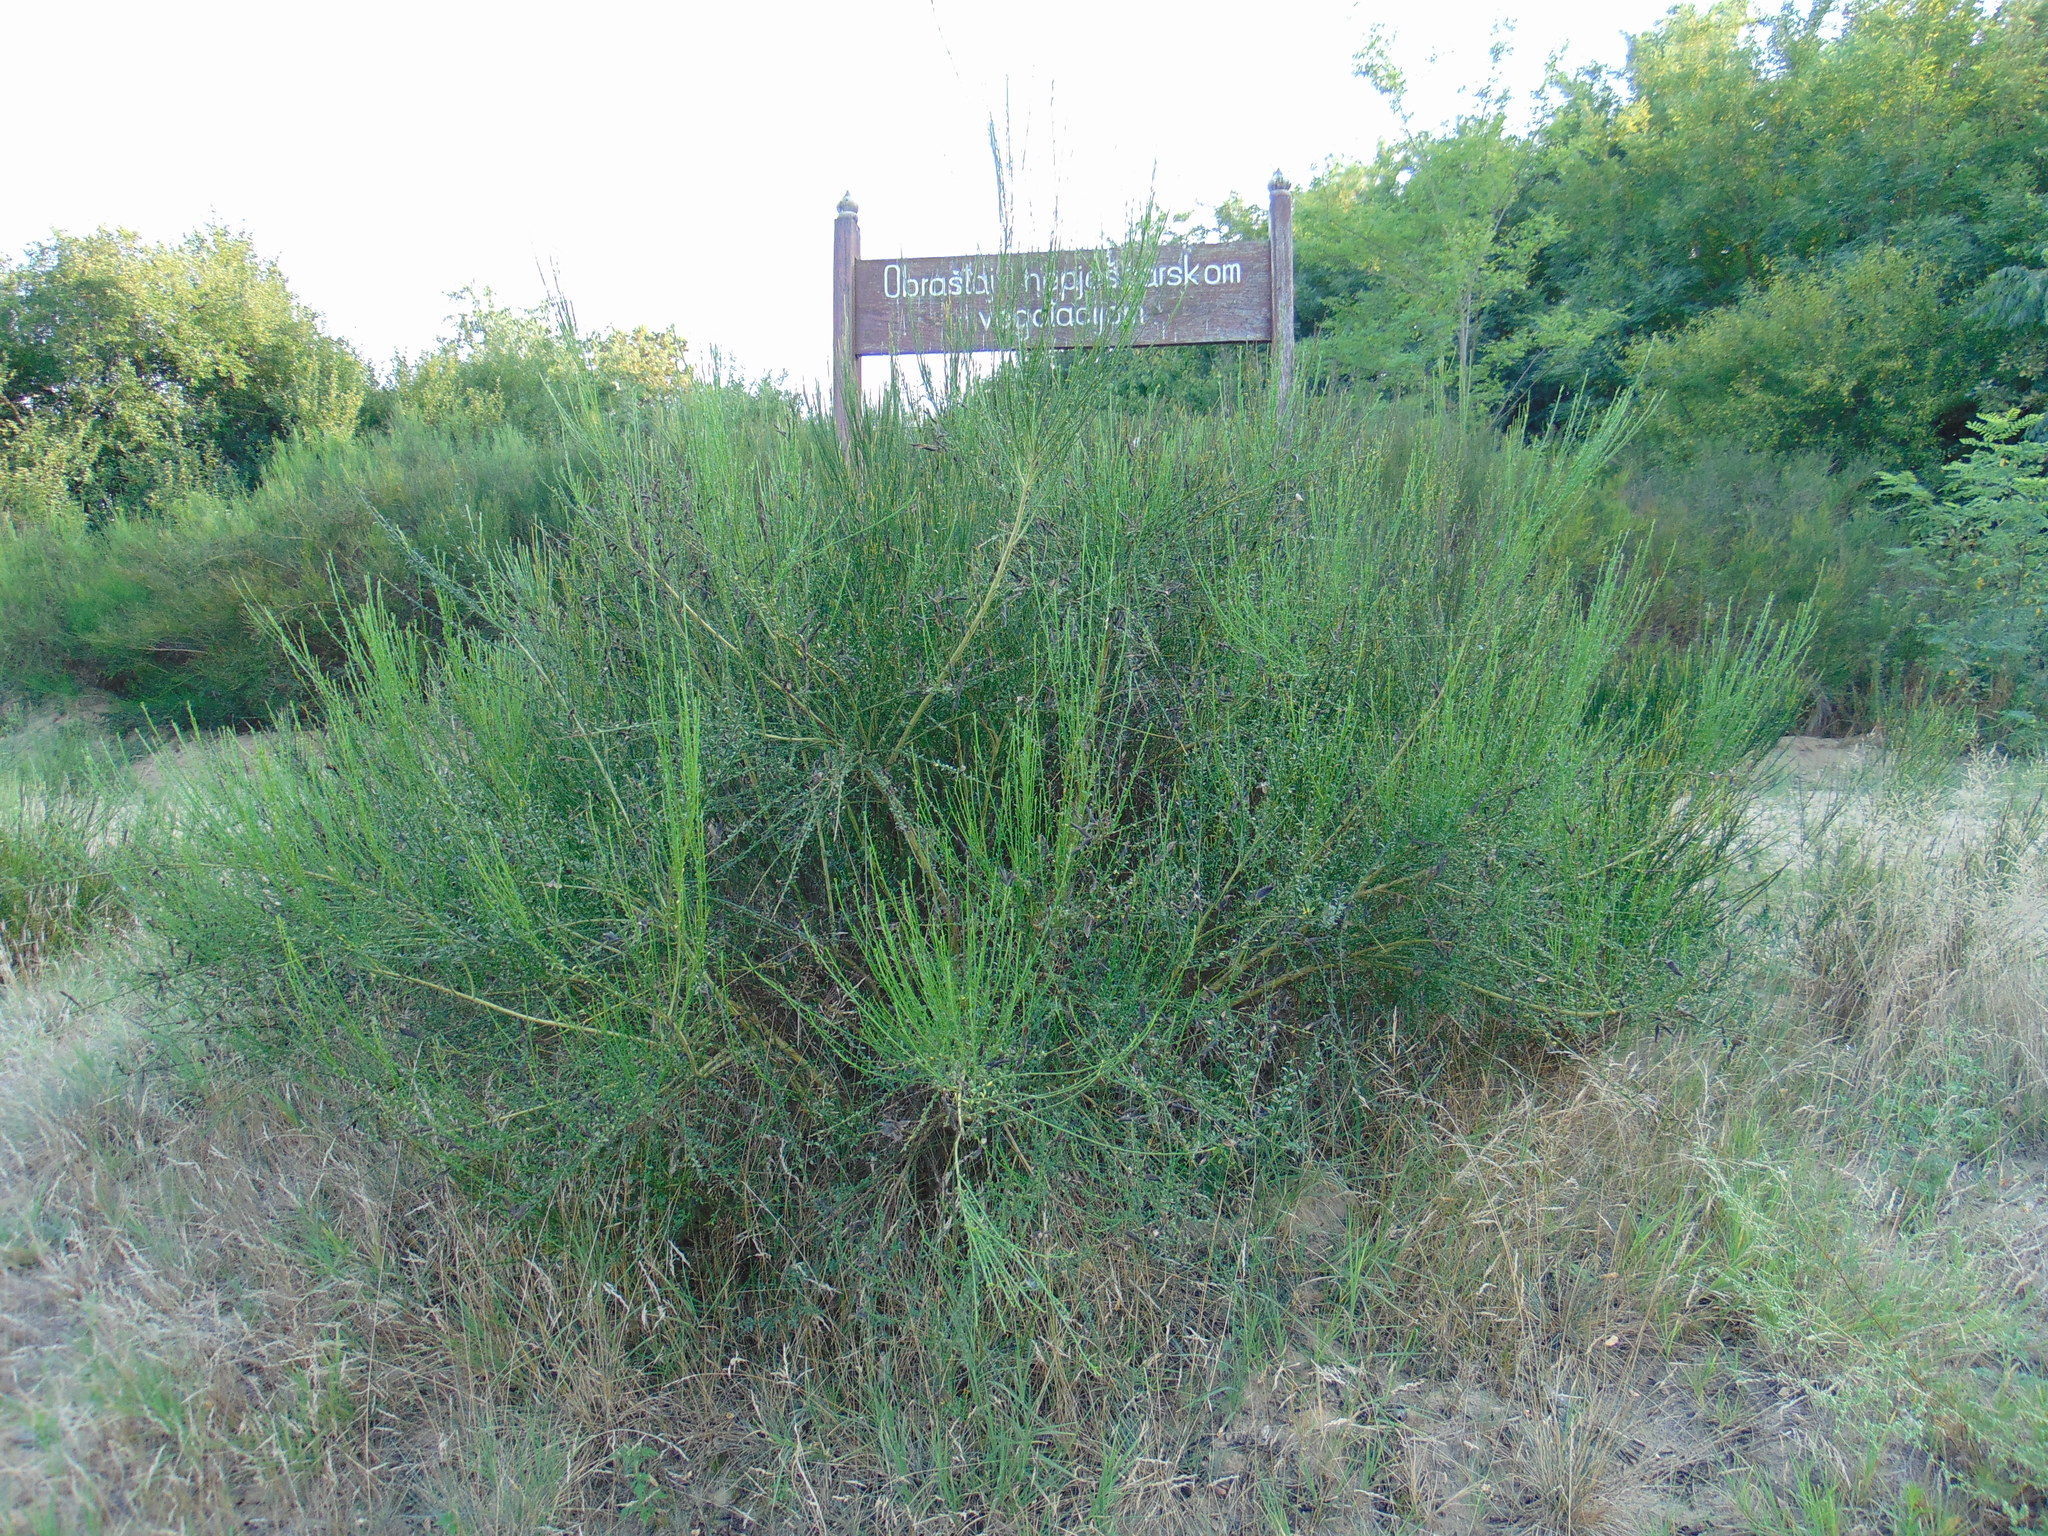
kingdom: Plantae
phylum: Tracheophyta
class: Magnoliopsida
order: Fabales
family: Fabaceae
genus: Cytisus
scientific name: Cytisus scoparius
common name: Scotch broom
